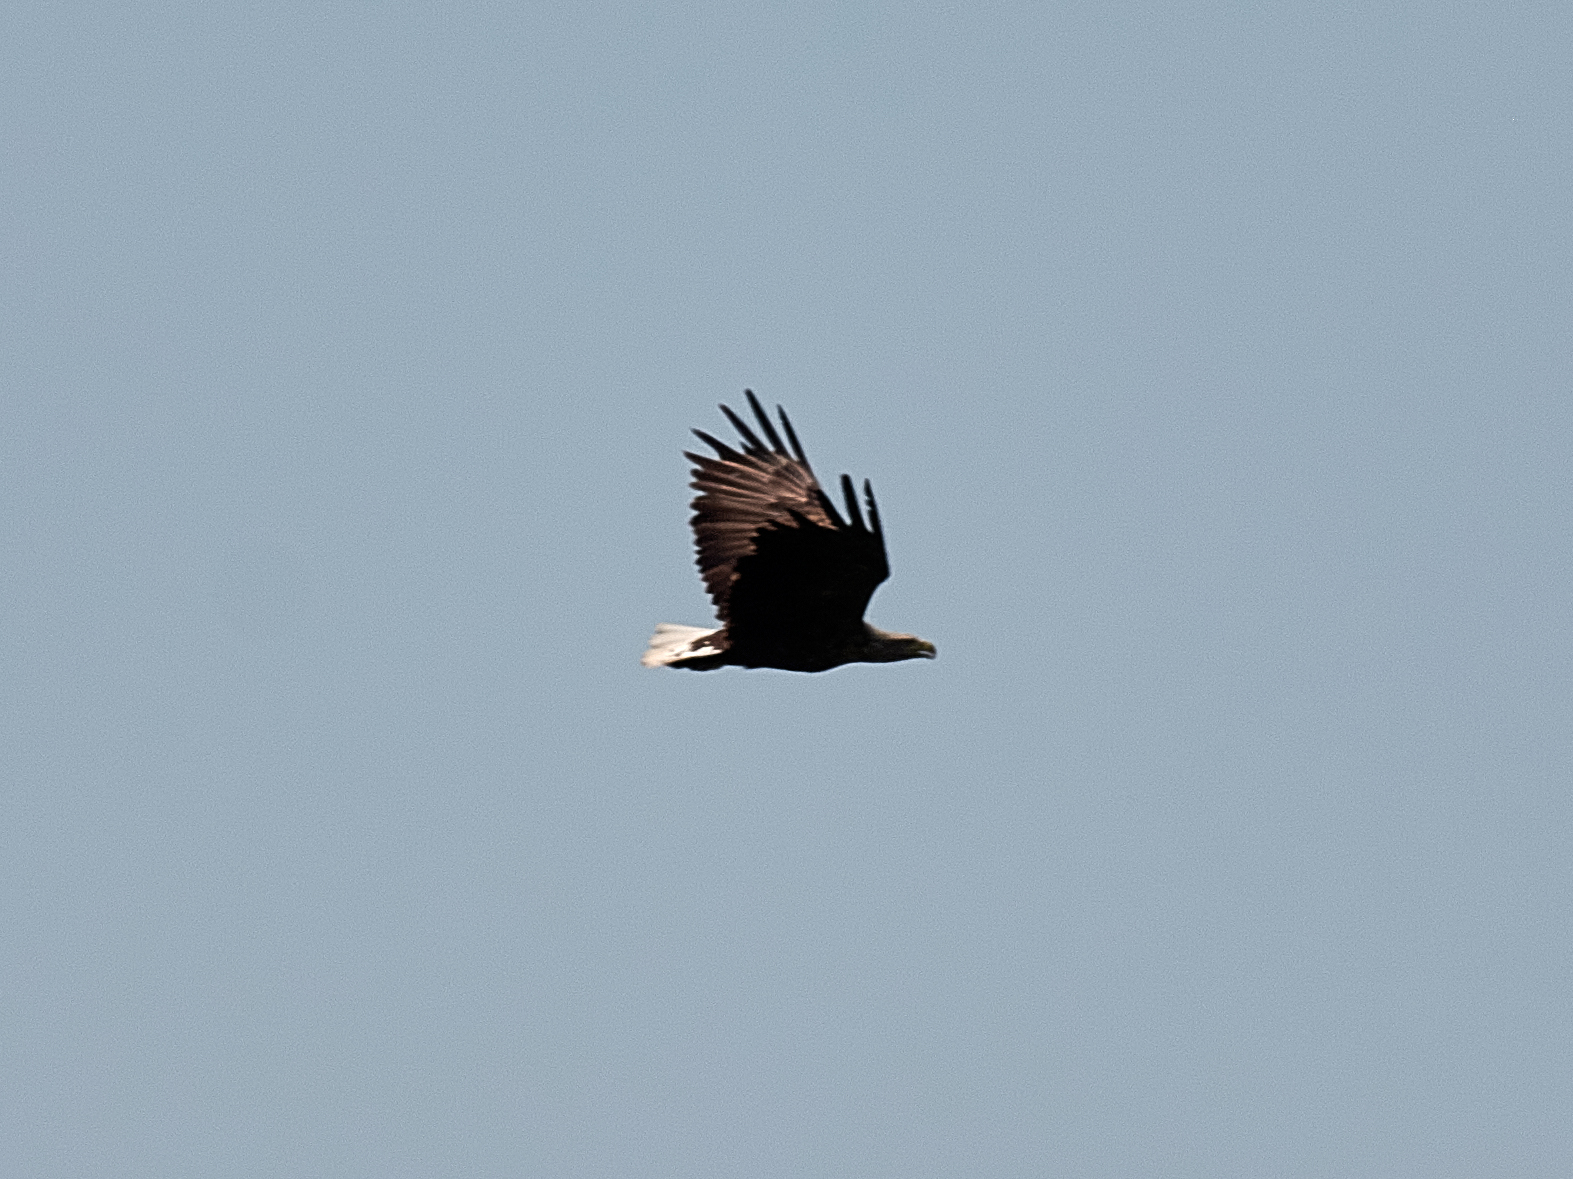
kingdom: Animalia
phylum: Chordata
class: Aves
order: Accipitriformes
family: Accipitridae
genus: Haliaeetus
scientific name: Haliaeetus albicilla
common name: White-tailed eagle
